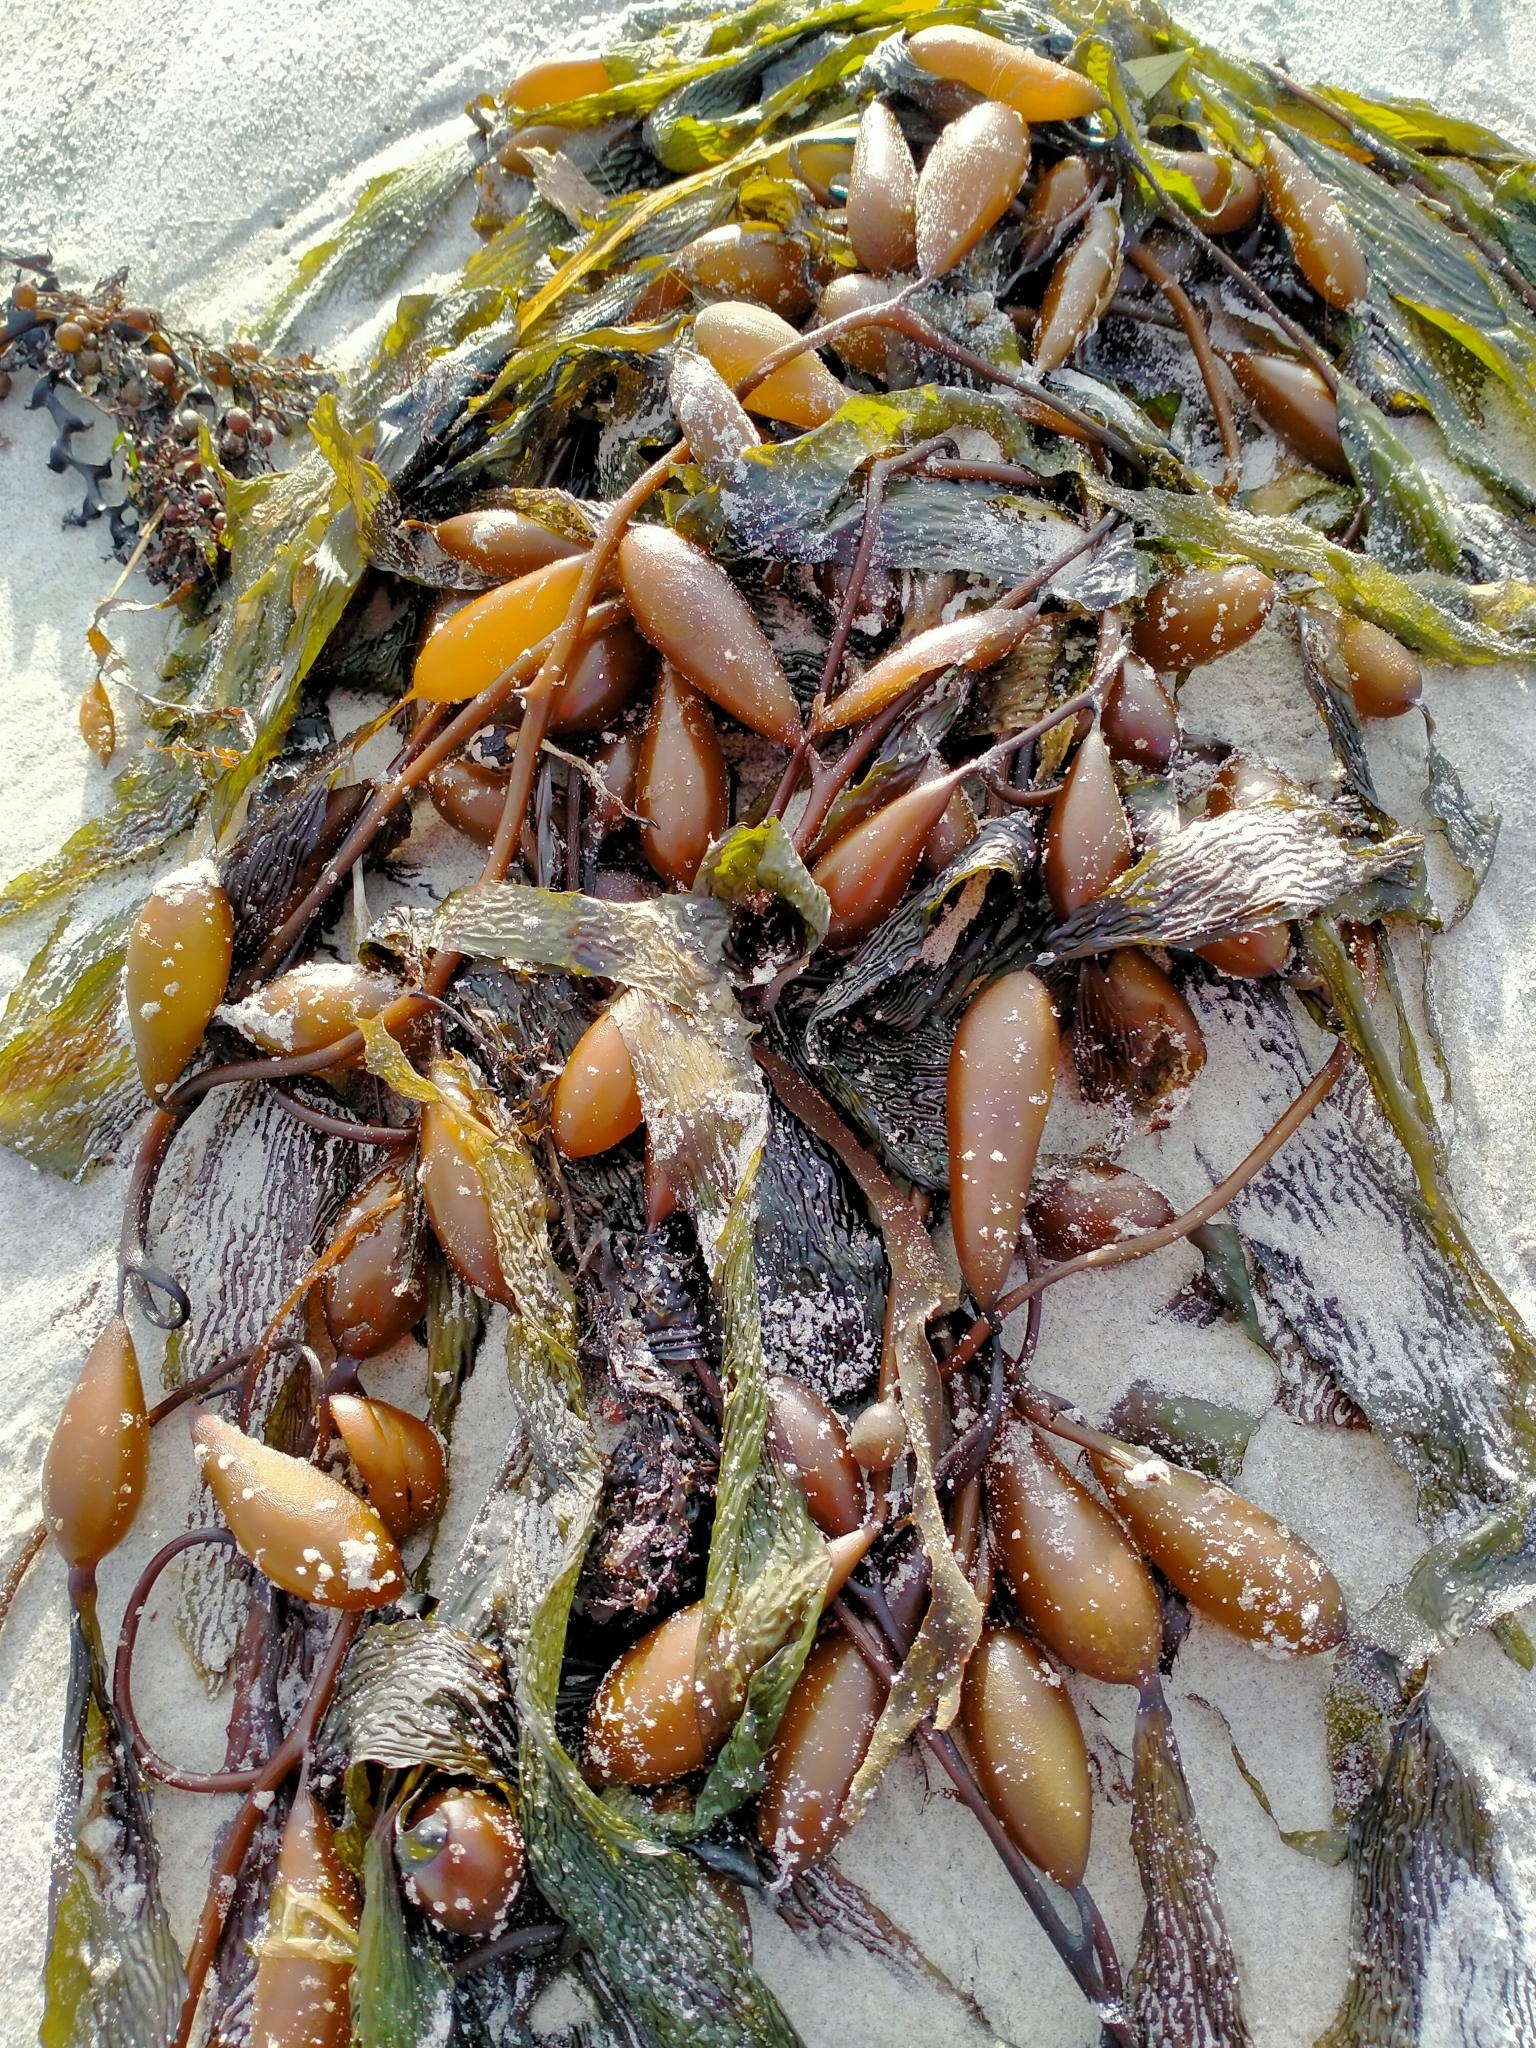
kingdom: Chromista
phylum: Ochrophyta
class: Phaeophyceae
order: Laminariales
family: Laminariaceae
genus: Macrocystis
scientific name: Macrocystis pyrifera
